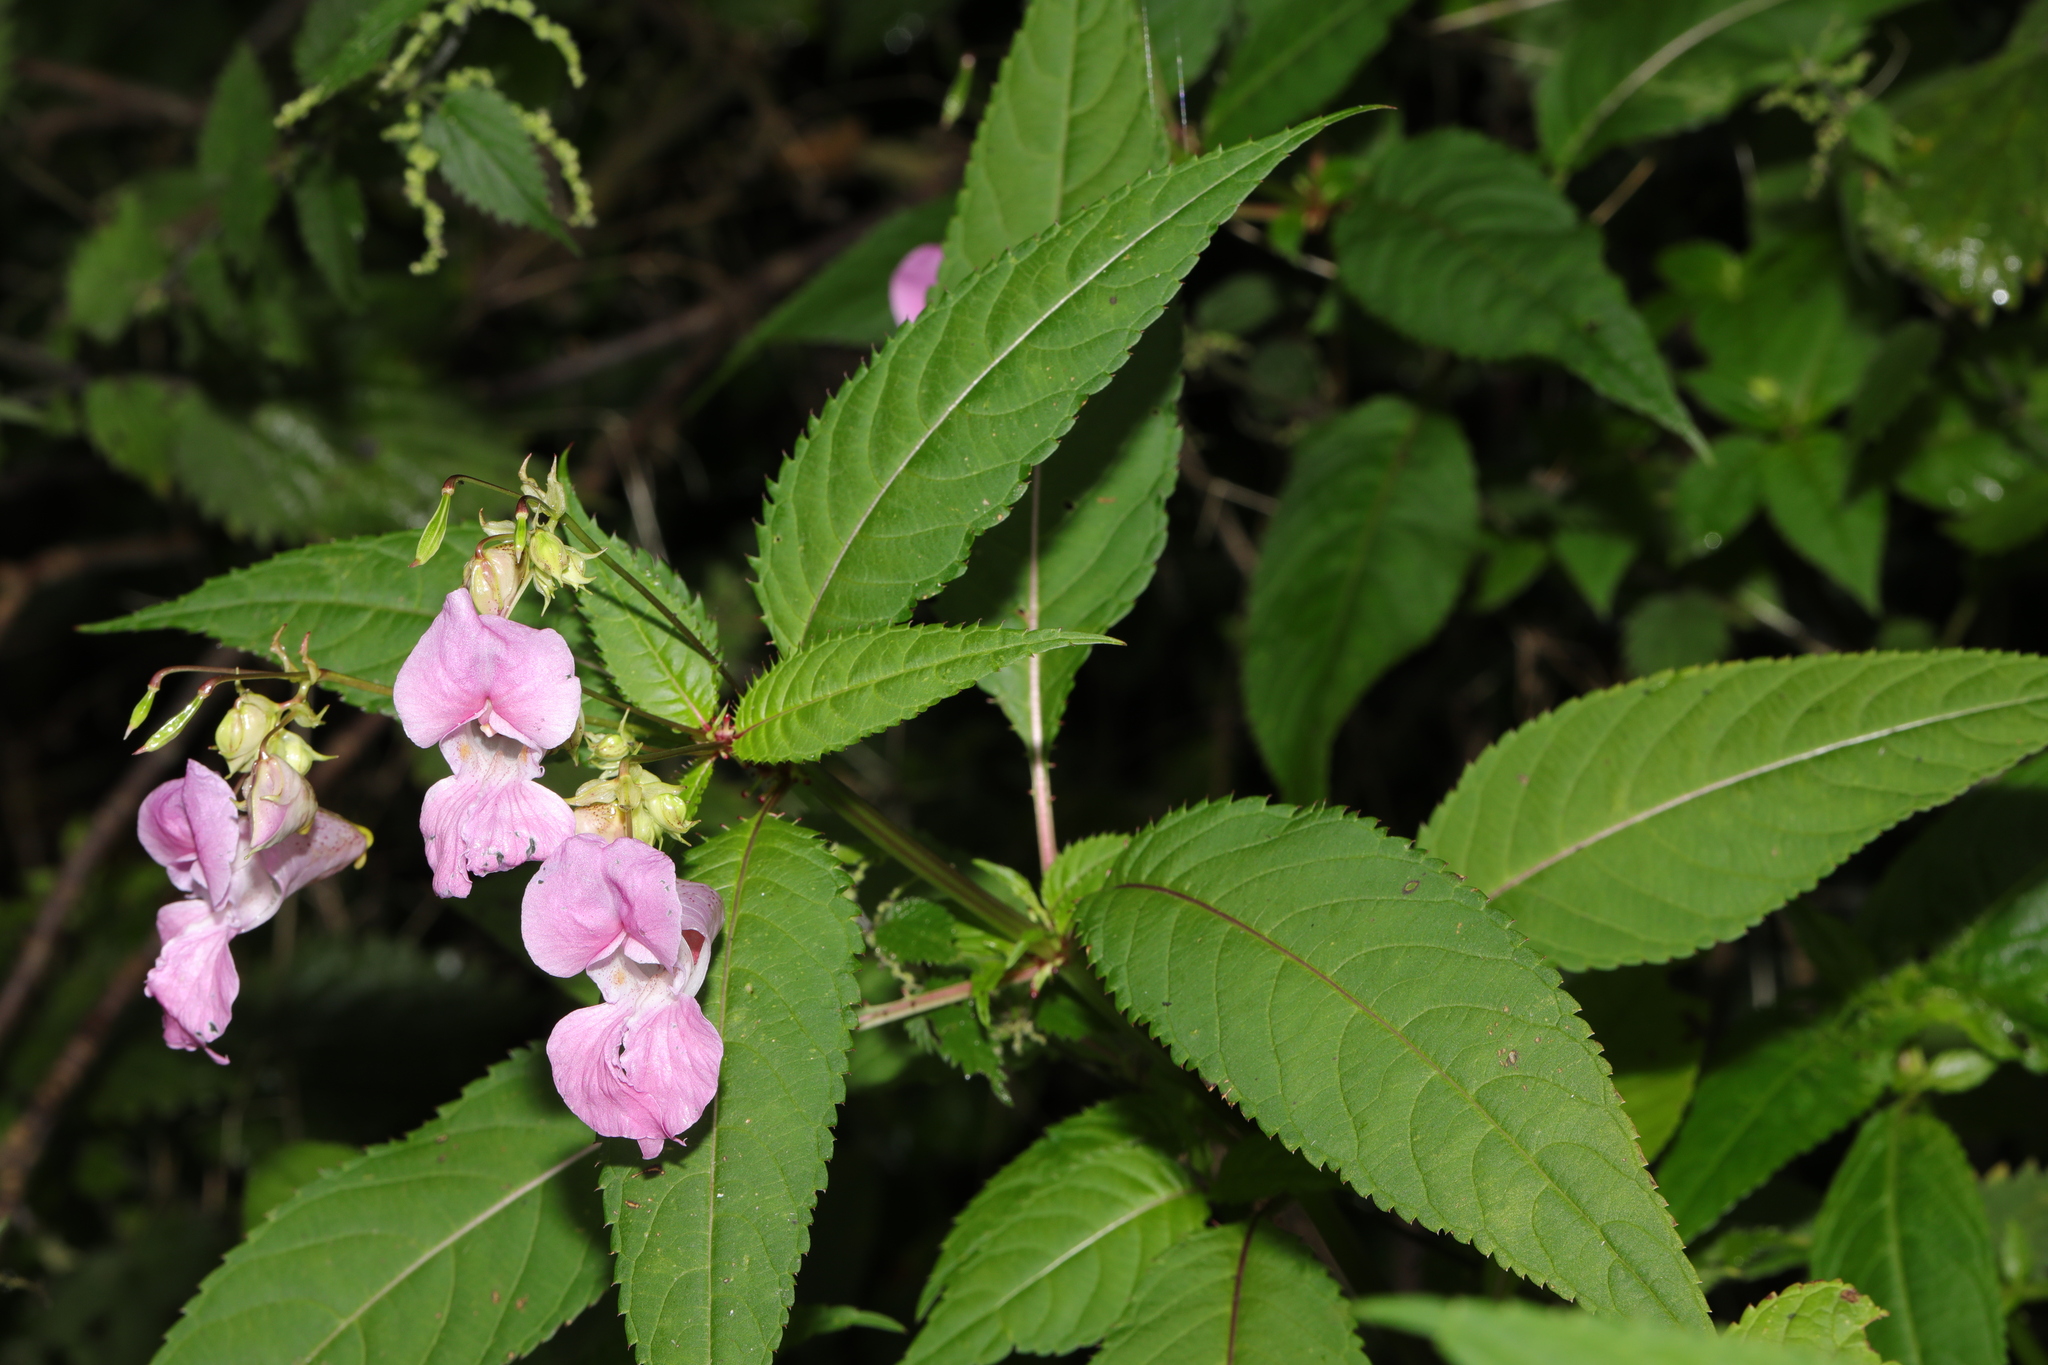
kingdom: Plantae
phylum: Tracheophyta
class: Magnoliopsida
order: Ericales
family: Balsaminaceae
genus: Impatiens
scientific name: Impatiens glandulifera
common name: Himalayan balsam
